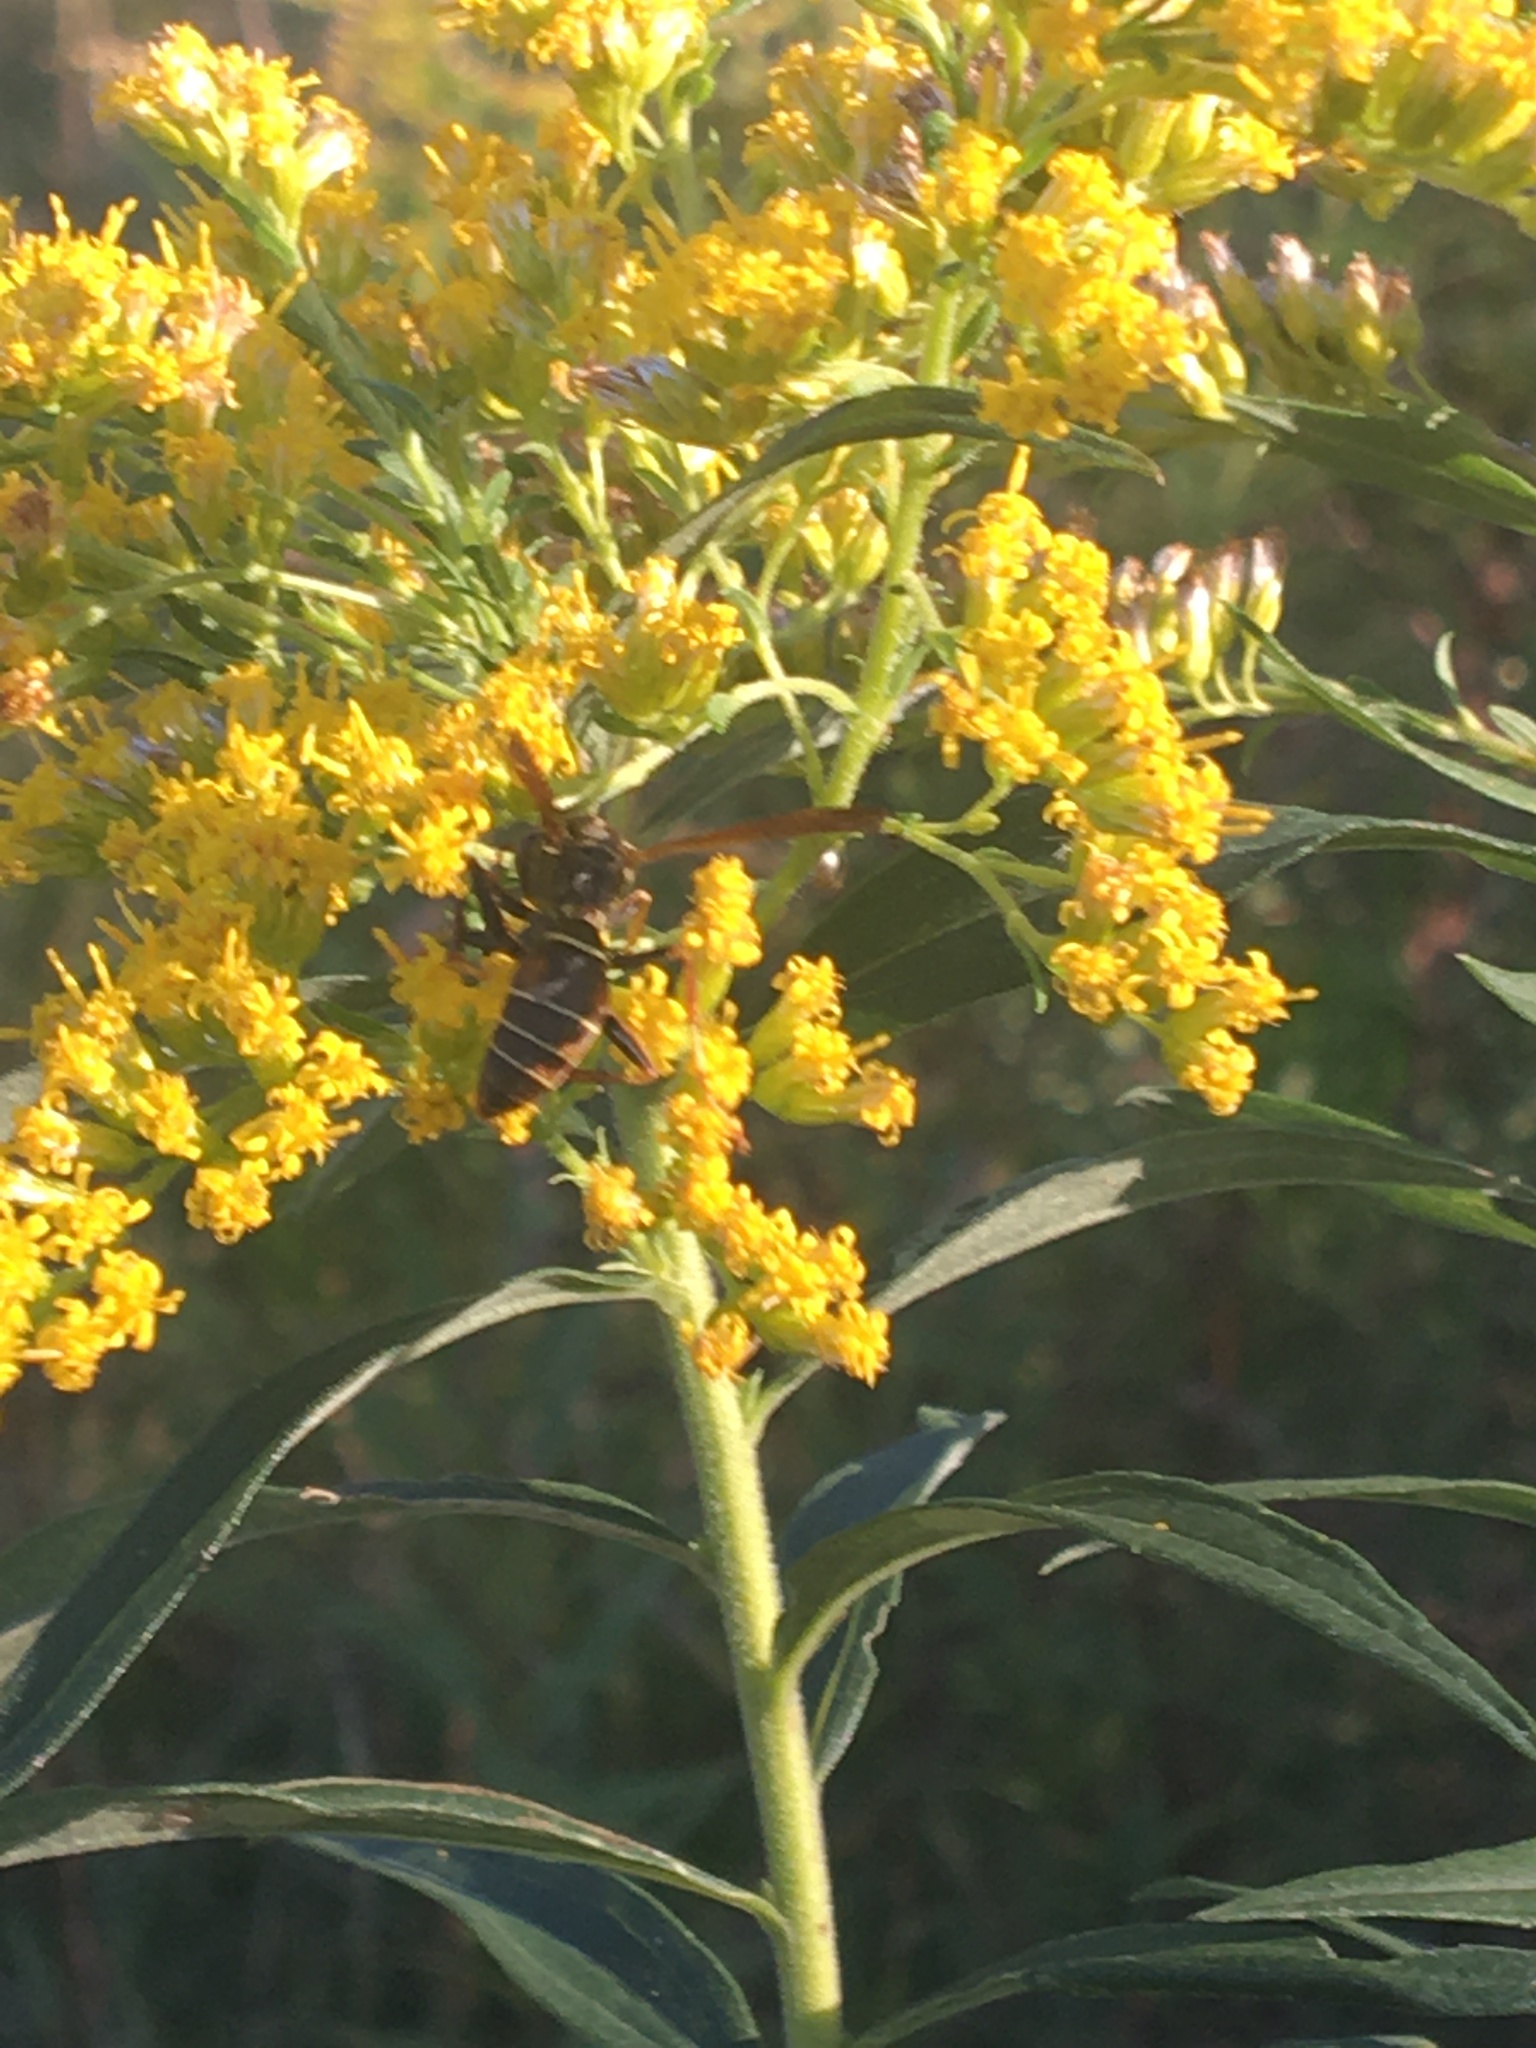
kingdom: Animalia
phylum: Arthropoda
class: Insecta
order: Hymenoptera
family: Eumenidae
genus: Polistes
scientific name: Polistes fuscatus
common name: Dark paper wasp
